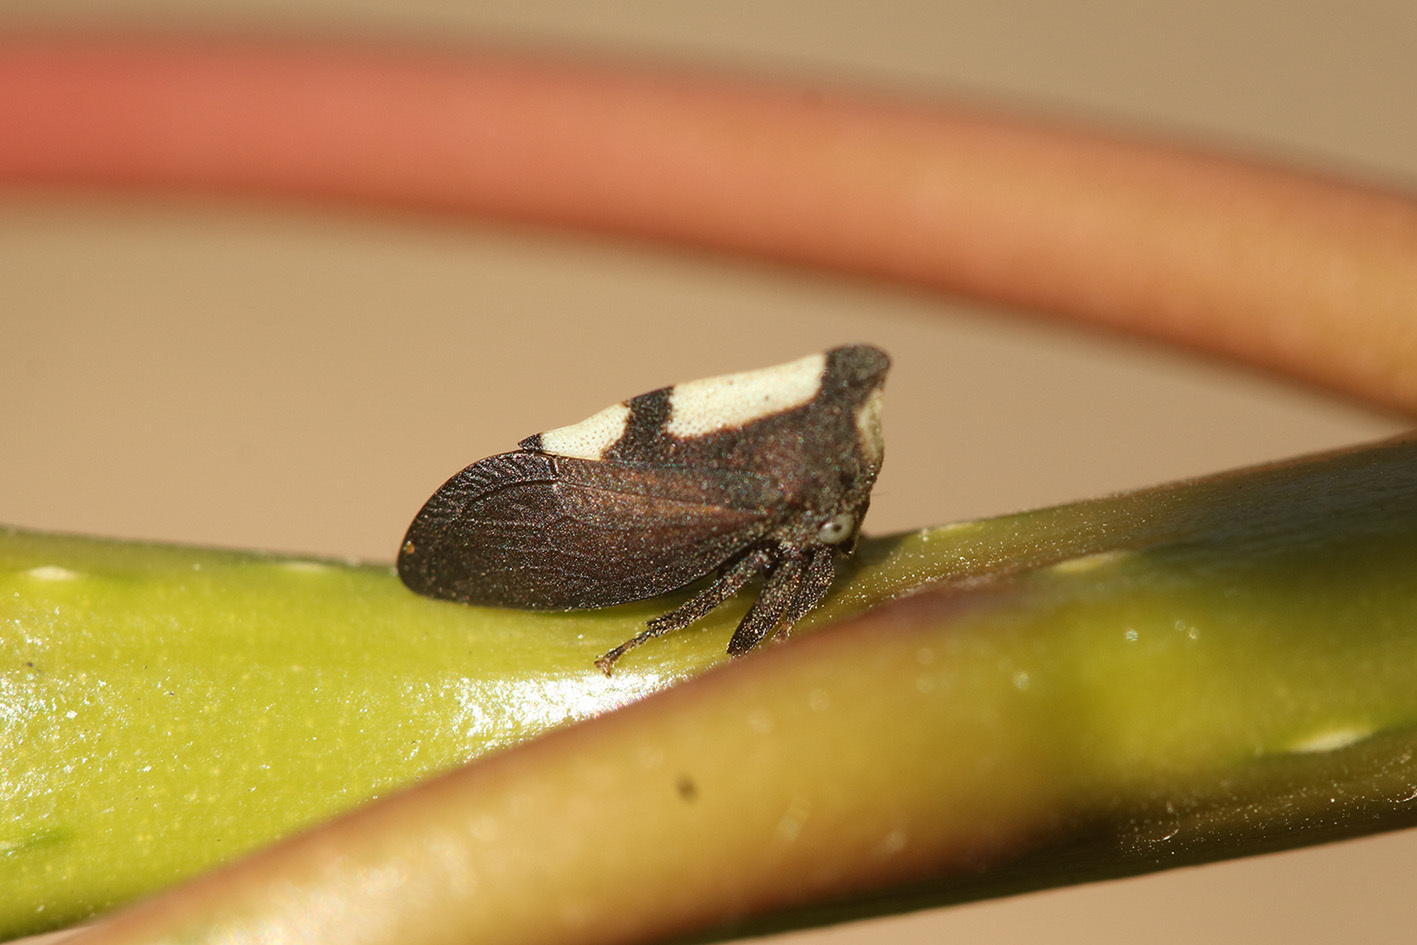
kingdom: Animalia
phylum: Arthropoda
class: Insecta
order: Hemiptera
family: Membracidae
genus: Enchenopa
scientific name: Enchenopa
